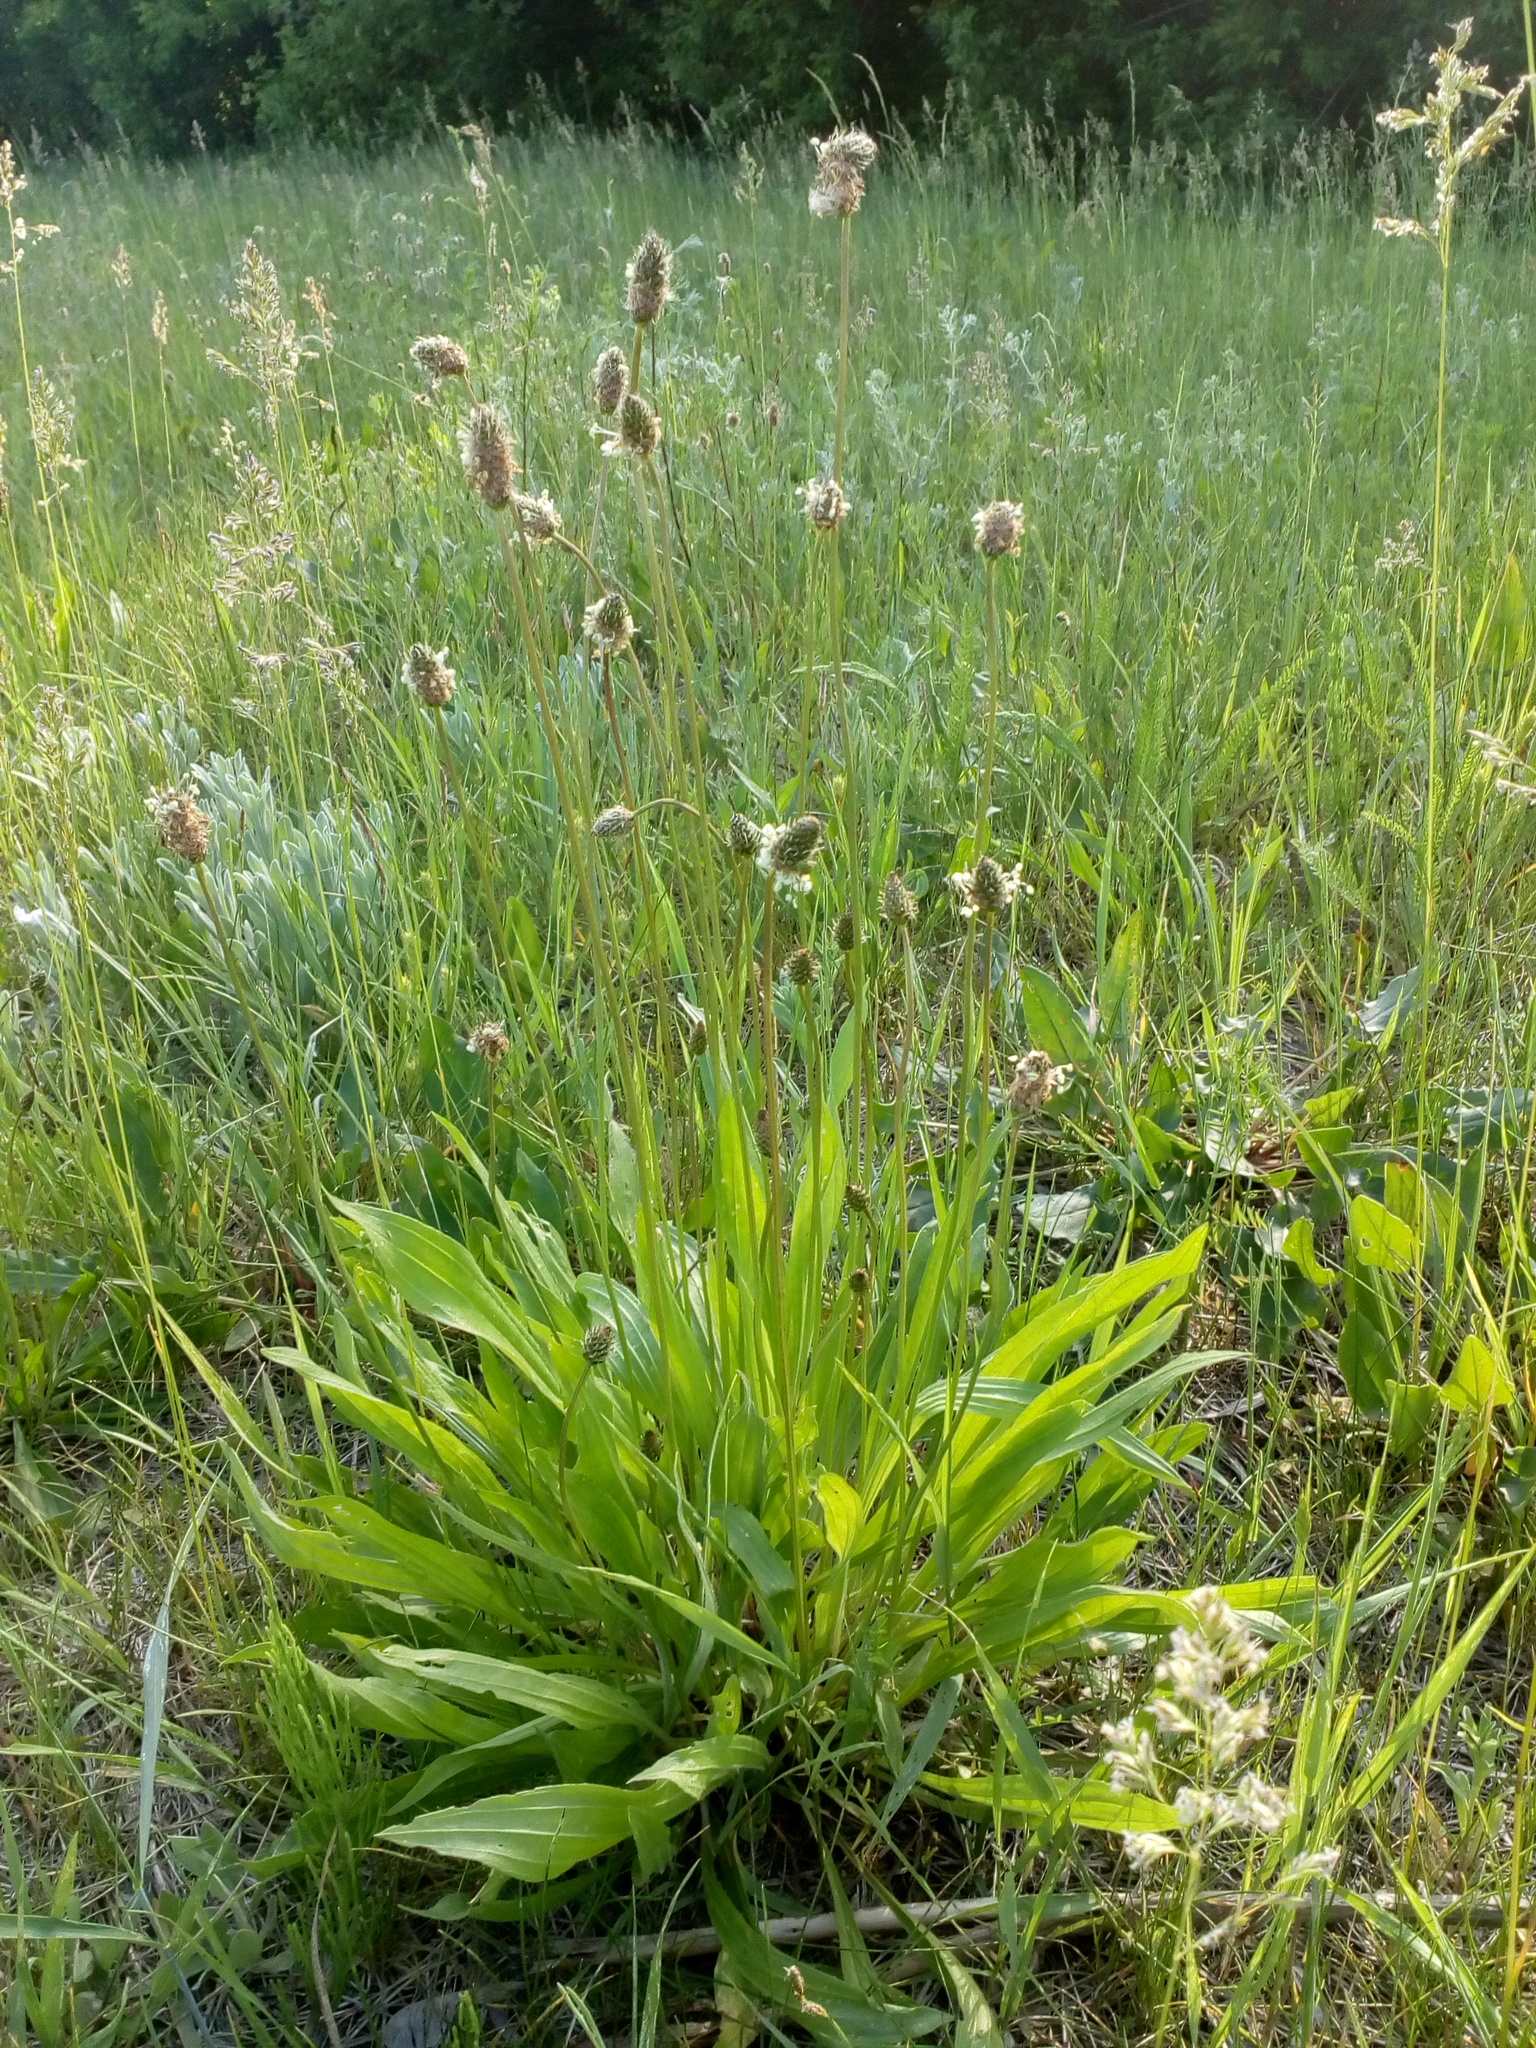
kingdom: Plantae
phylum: Tracheophyta
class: Magnoliopsida
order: Lamiales
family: Plantaginaceae
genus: Plantago
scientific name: Plantago lanceolata
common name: Ribwort plantain
